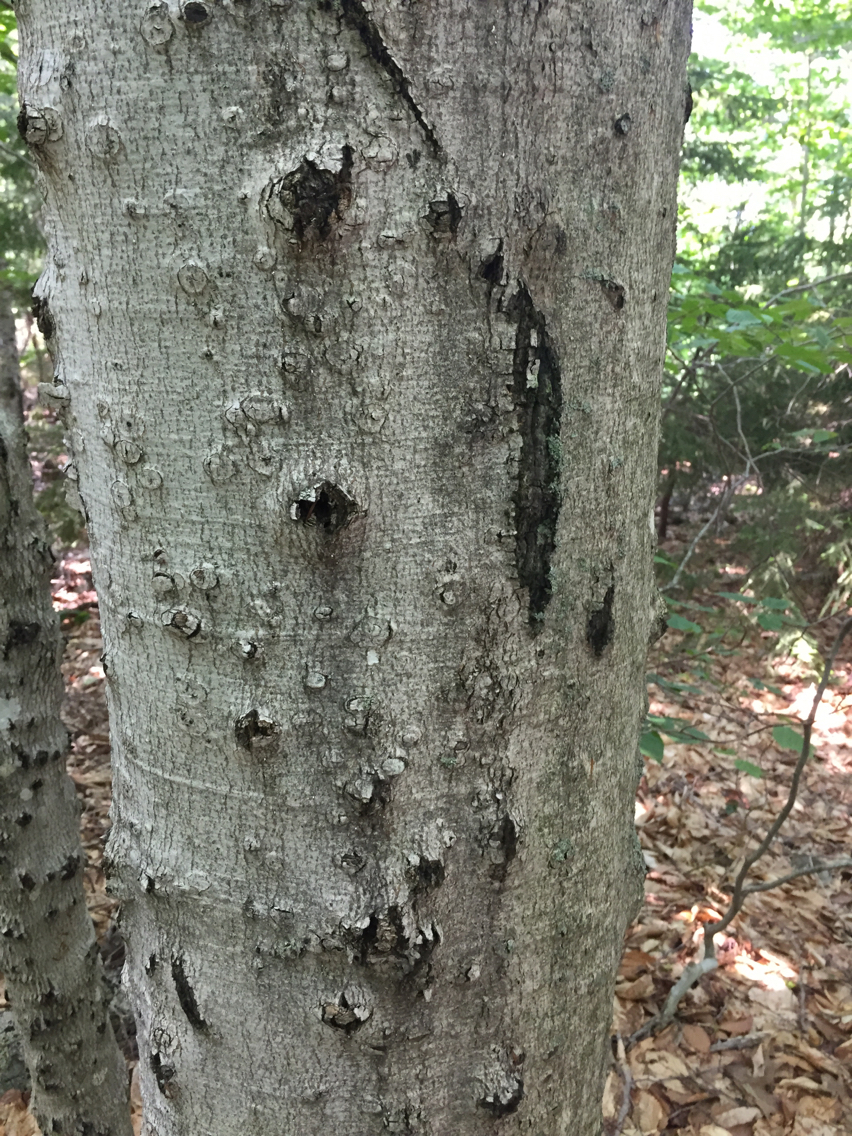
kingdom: Plantae
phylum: Tracheophyta
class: Magnoliopsida
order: Fagales
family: Fagaceae
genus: Fagus
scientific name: Fagus grandifolia
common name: American beech
